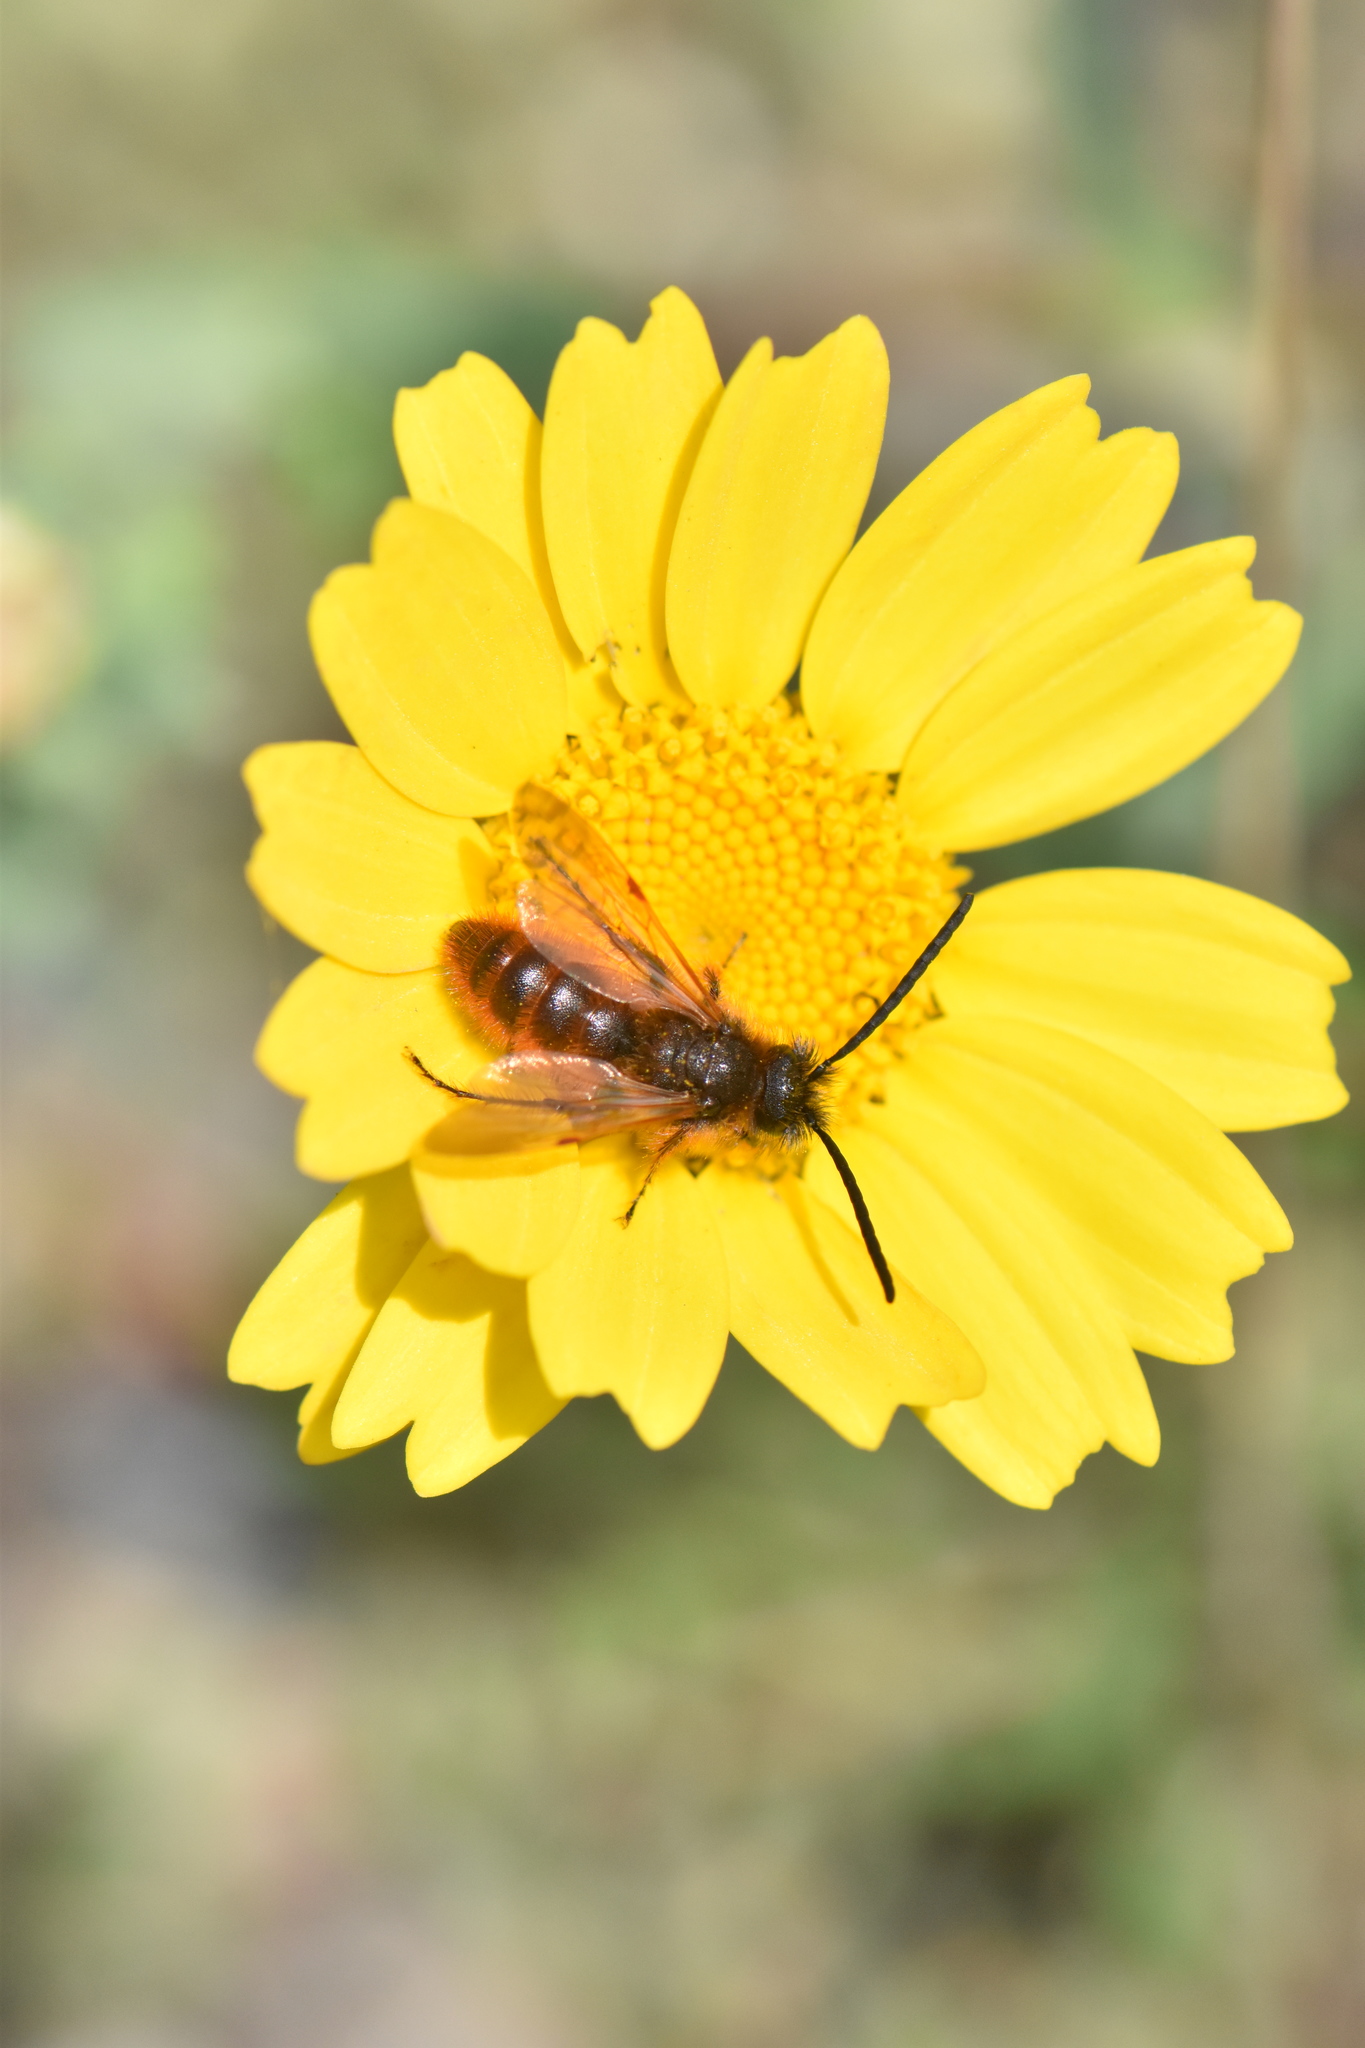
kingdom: Animalia
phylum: Arthropoda
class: Insecta
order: Hymenoptera
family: Scoliidae
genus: Dasyscolia
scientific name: Dasyscolia ciliata
